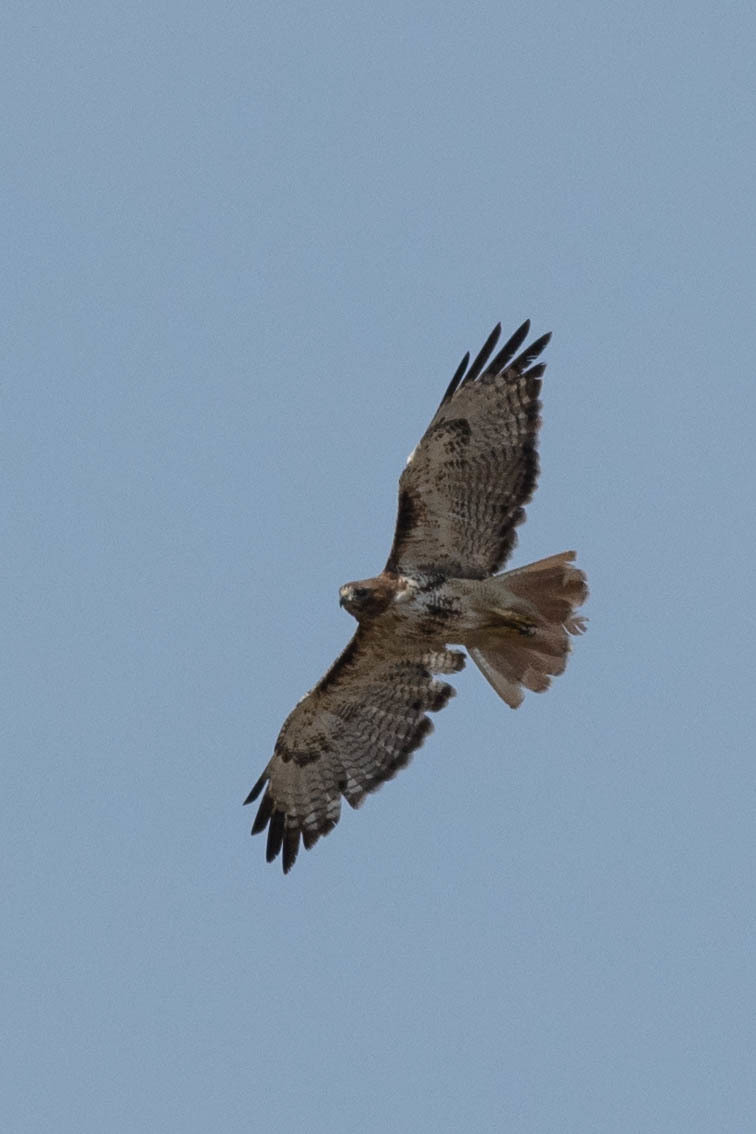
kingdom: Animalia
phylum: Chordata
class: Aves
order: Accipitriformes
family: Accipitridae
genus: Buteo
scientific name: Buteo jamaicensis
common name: Red-tailed hawk
